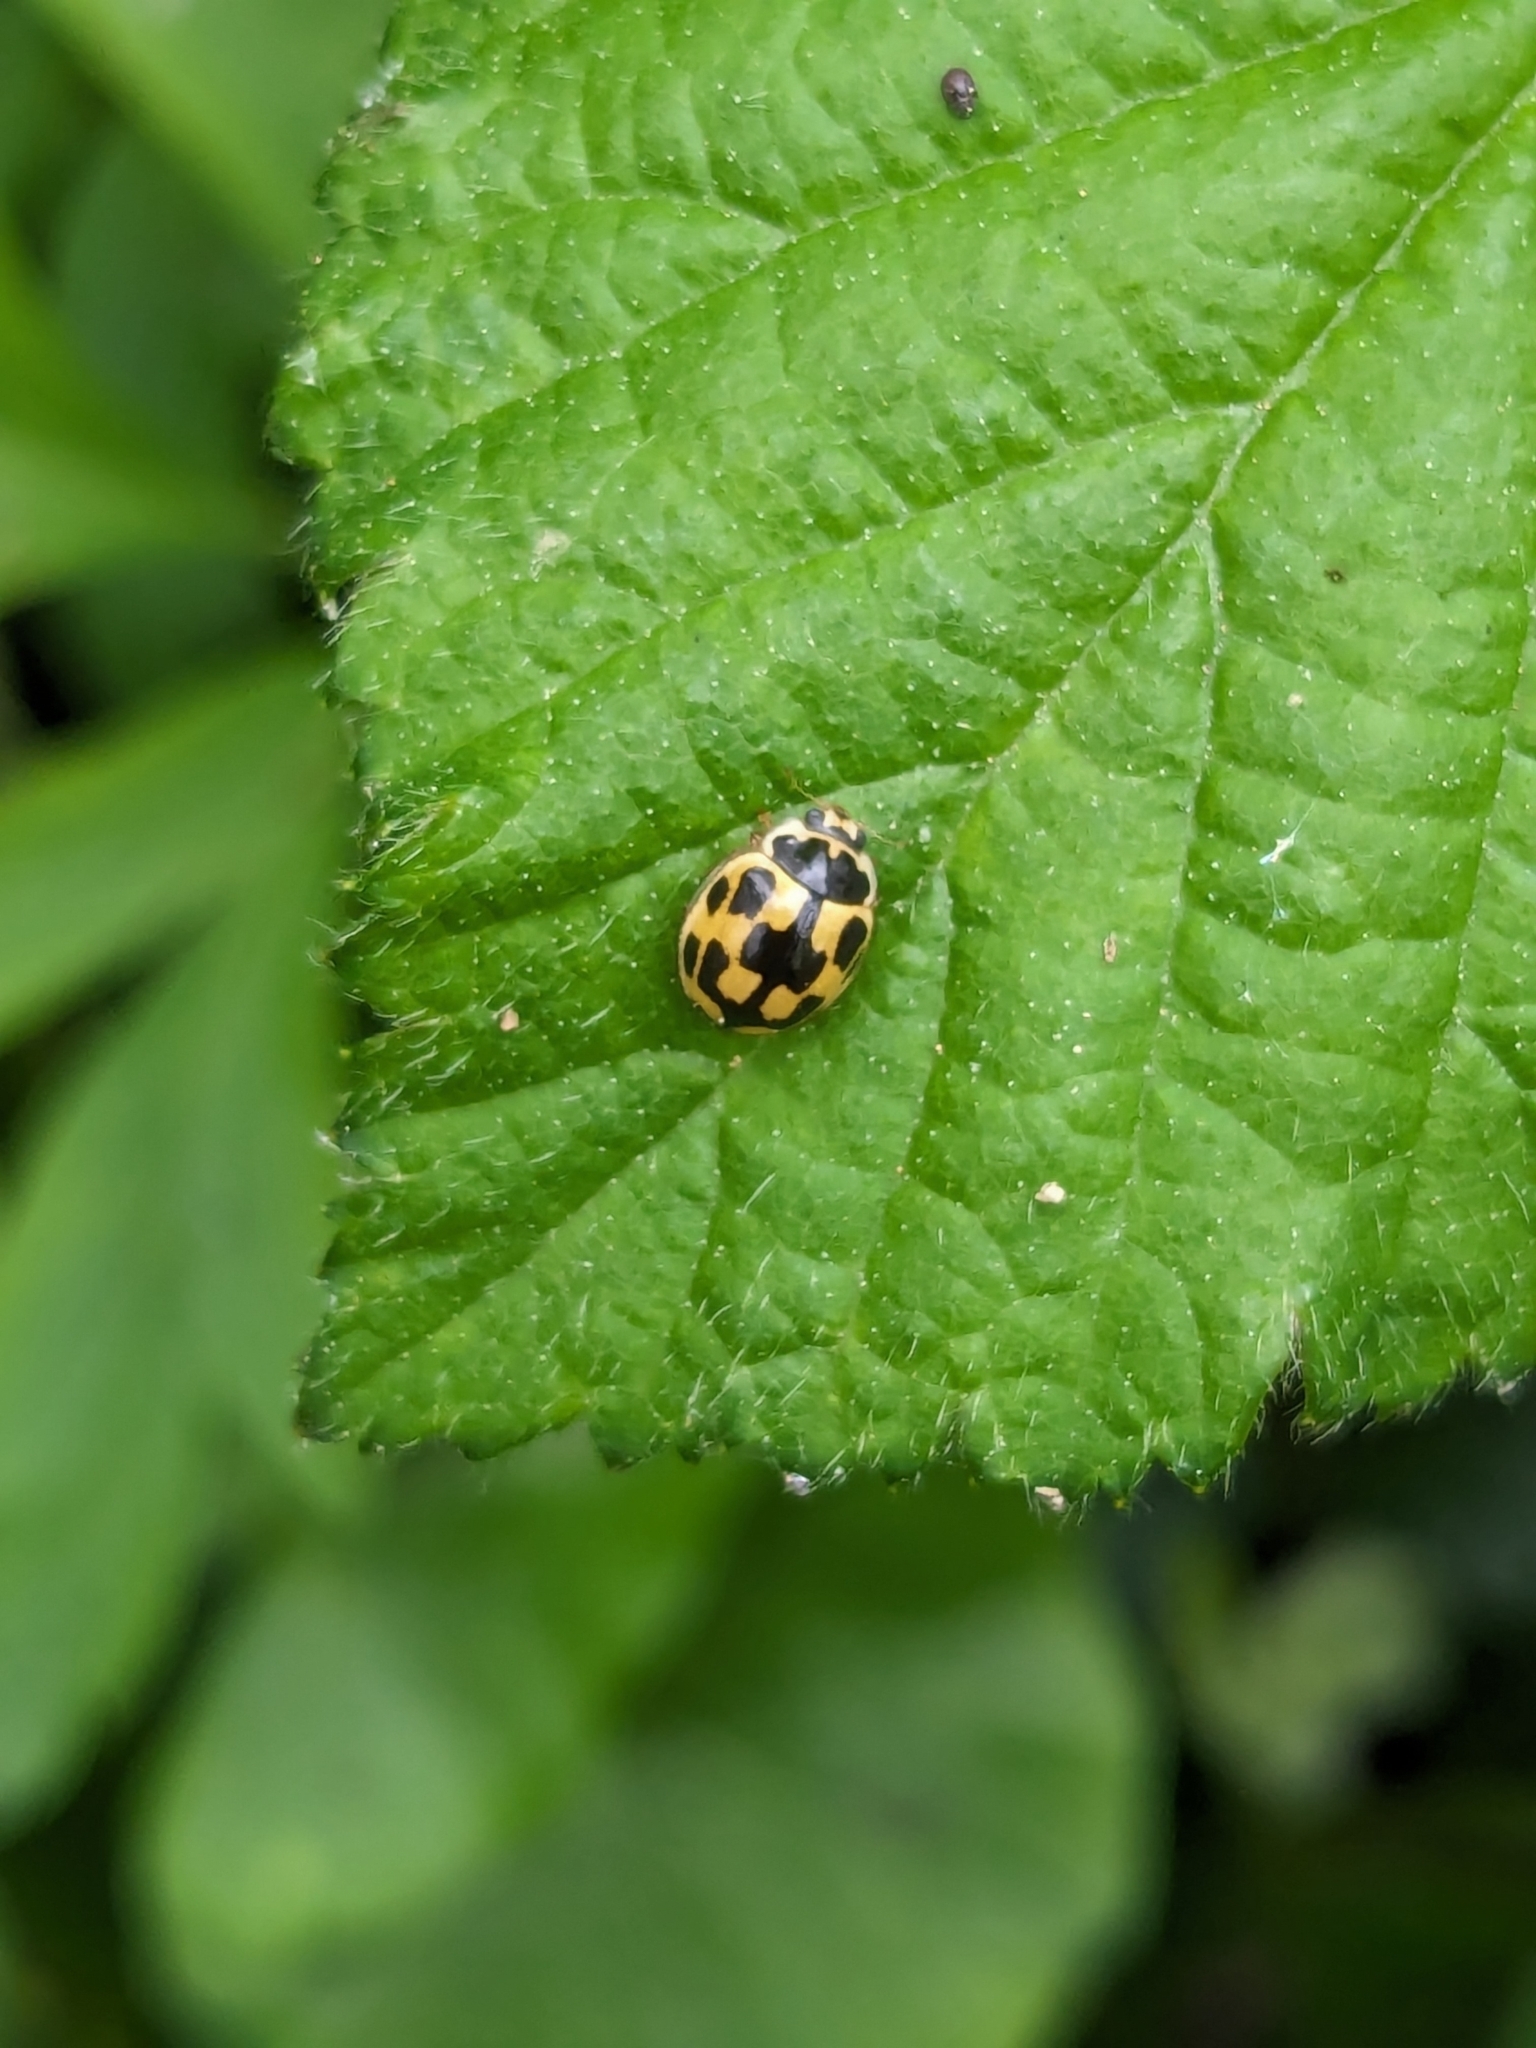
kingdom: Animalia
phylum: Arthropoda
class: Insecta
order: Coleoptera
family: Coccinellidae
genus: Propylaea
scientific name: Propylaea quatuordecimpunctata
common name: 14-spotted ladybird beetle
